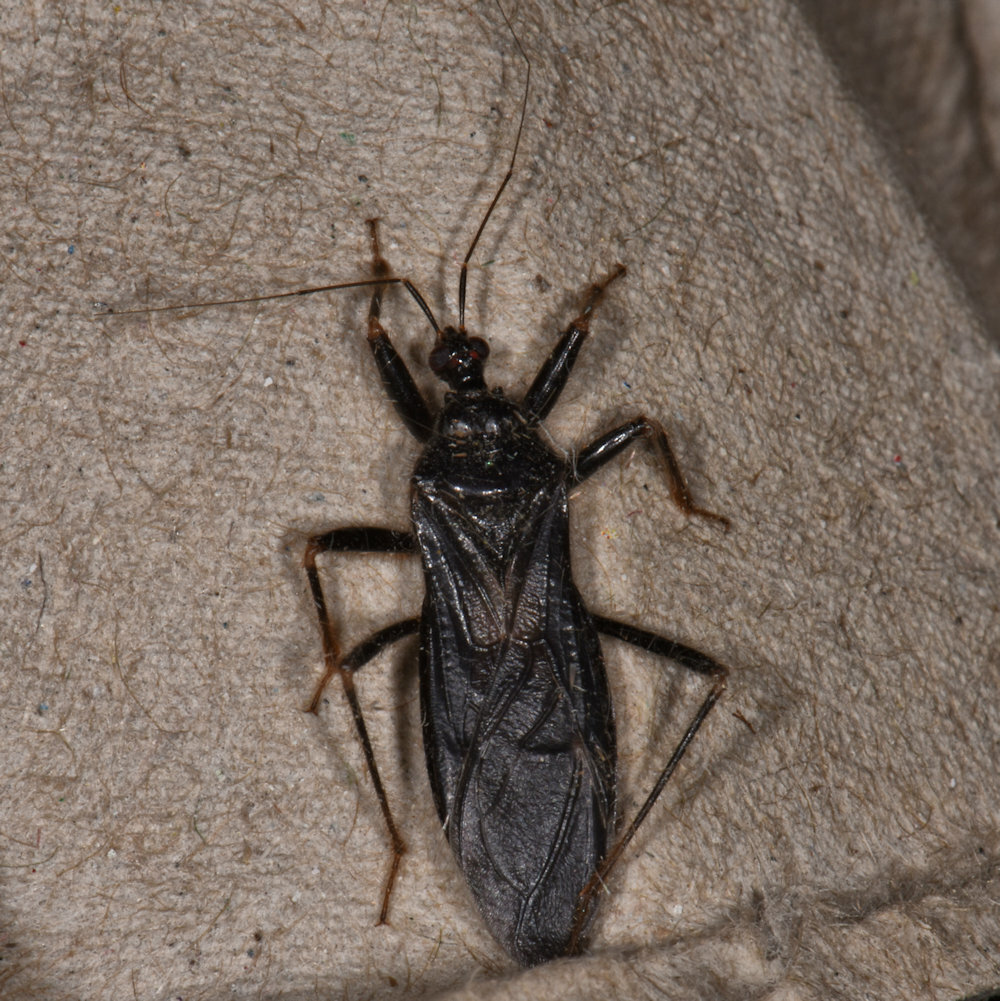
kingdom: Animalia
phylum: Arthropoda
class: Insecta
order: Hemiptera
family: Reduviidae
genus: Reduvius
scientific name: Reduvius personatus
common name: Masked hunter
